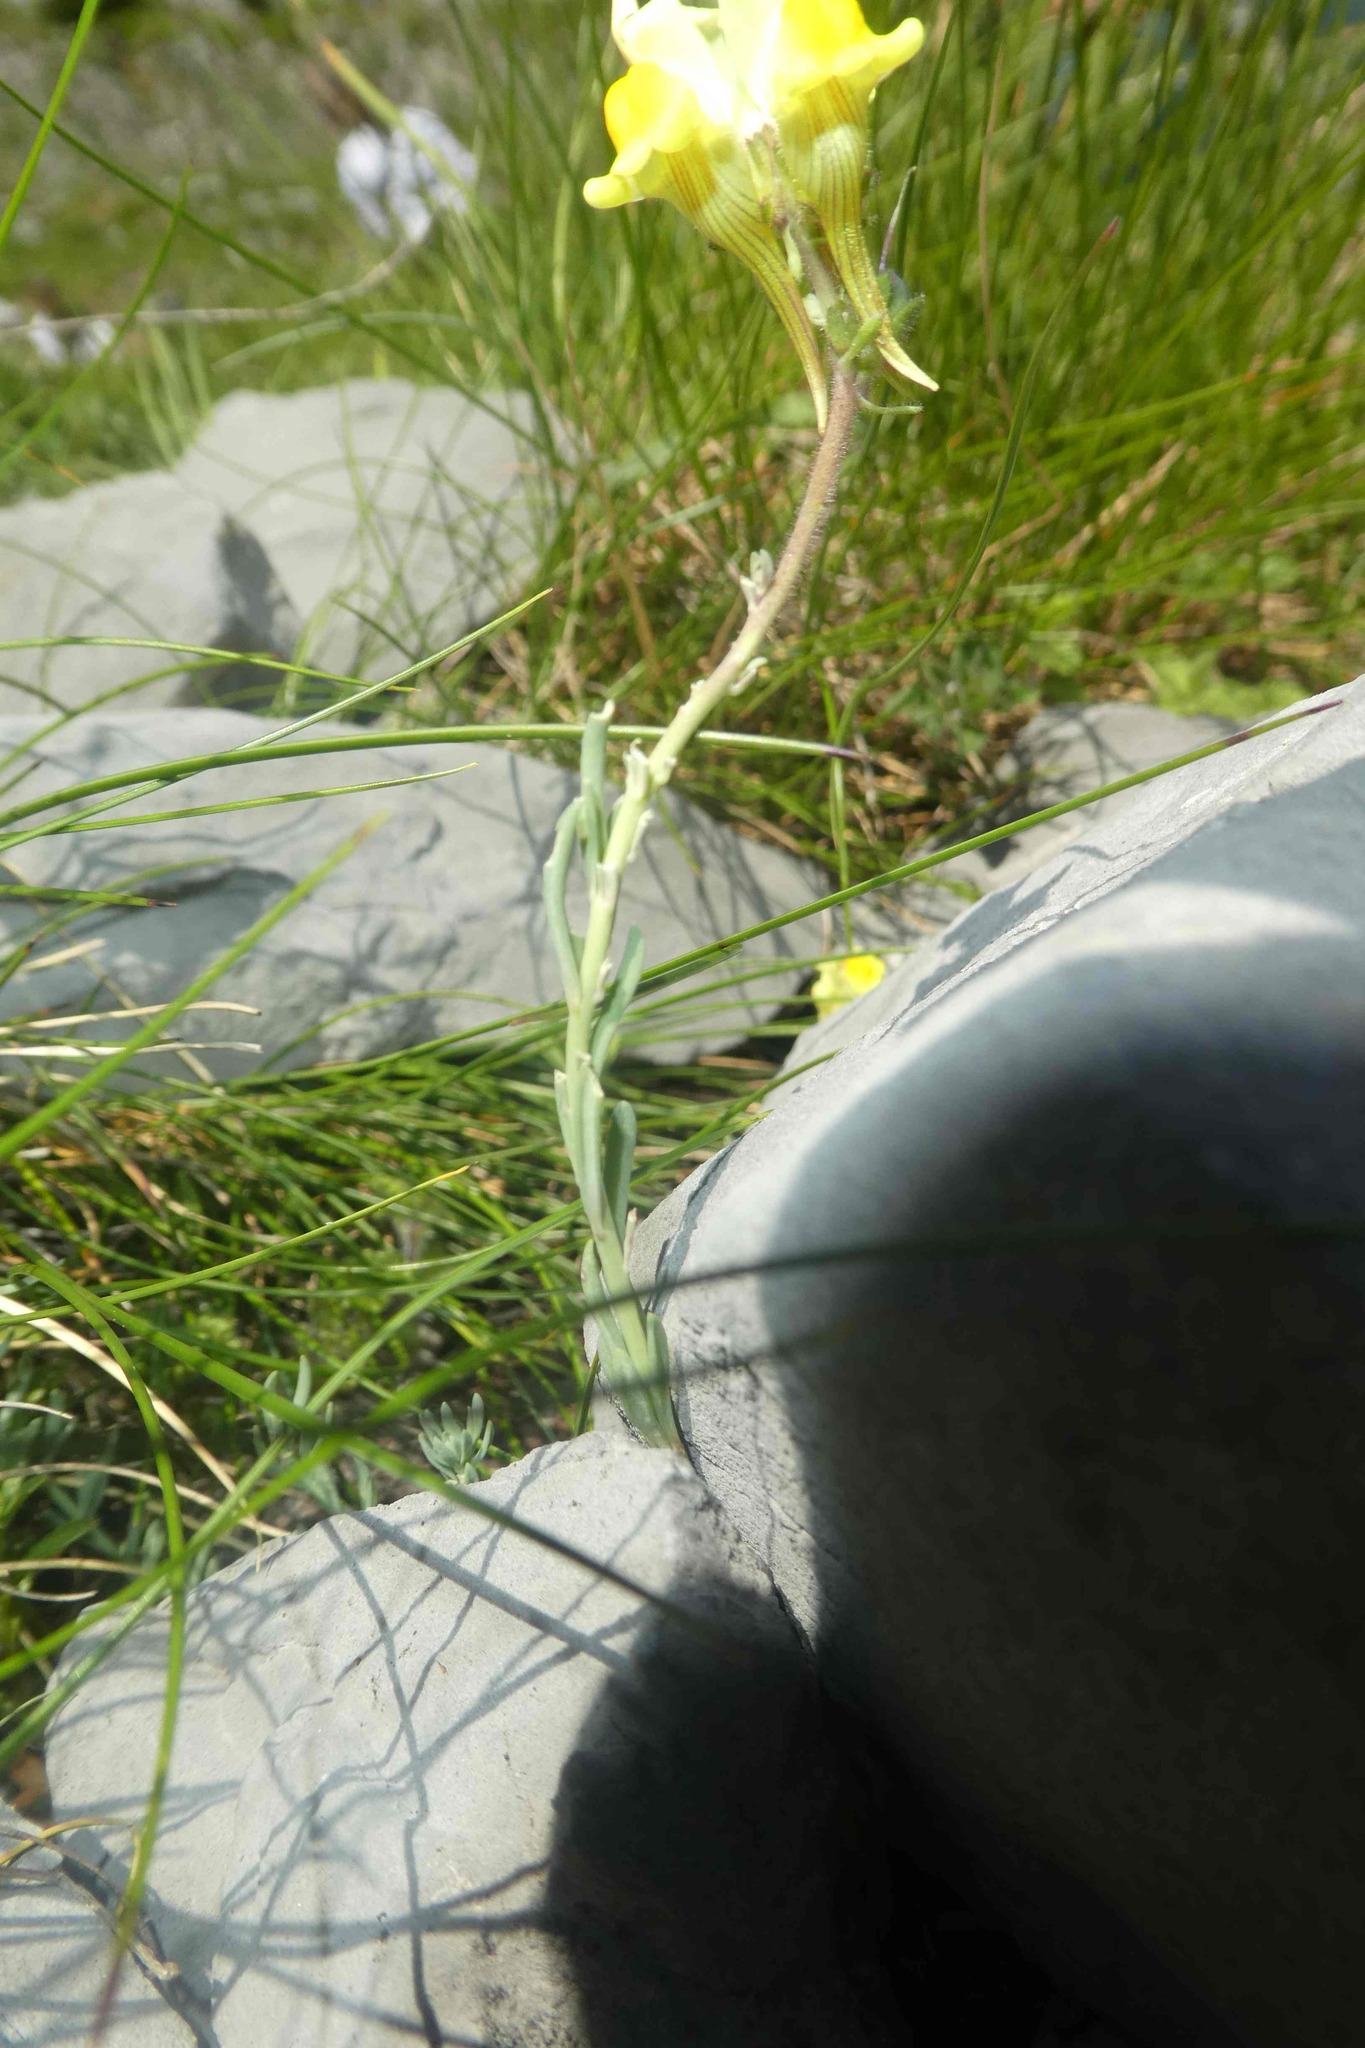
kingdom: Plantae
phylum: Tracheophyta
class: Magnoliopsida
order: Lamiales
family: Plantaginaceae
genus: Linaria
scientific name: Linaria supina
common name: Prostrate toadflax
